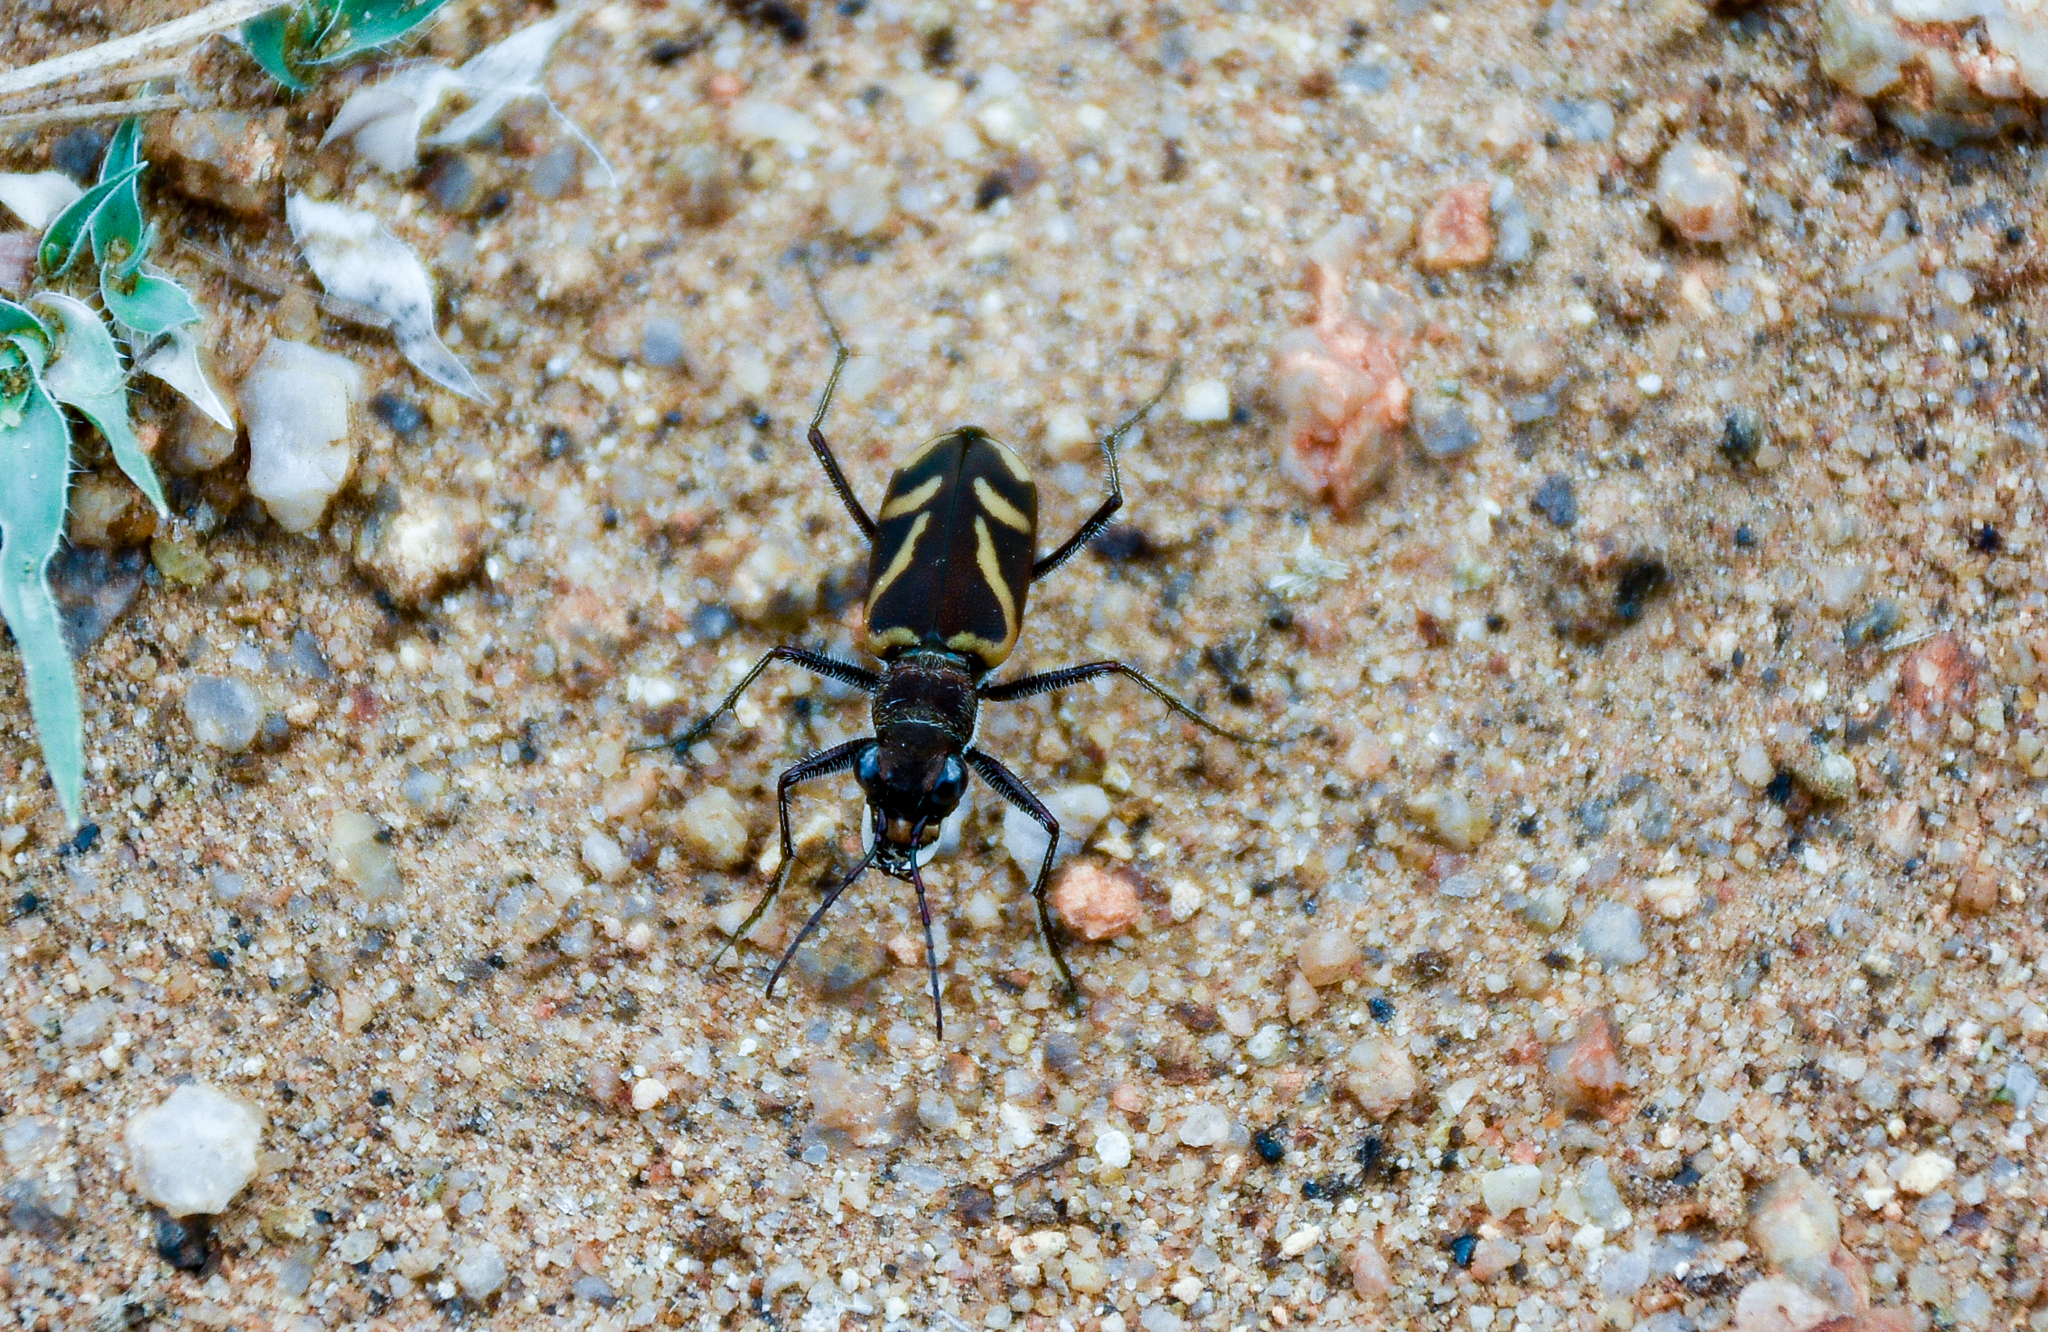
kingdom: Animalia
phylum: Arthropoda
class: Insecta
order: Coleoptera
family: Carabidae
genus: Cicindela
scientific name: Cicindela calligramma
